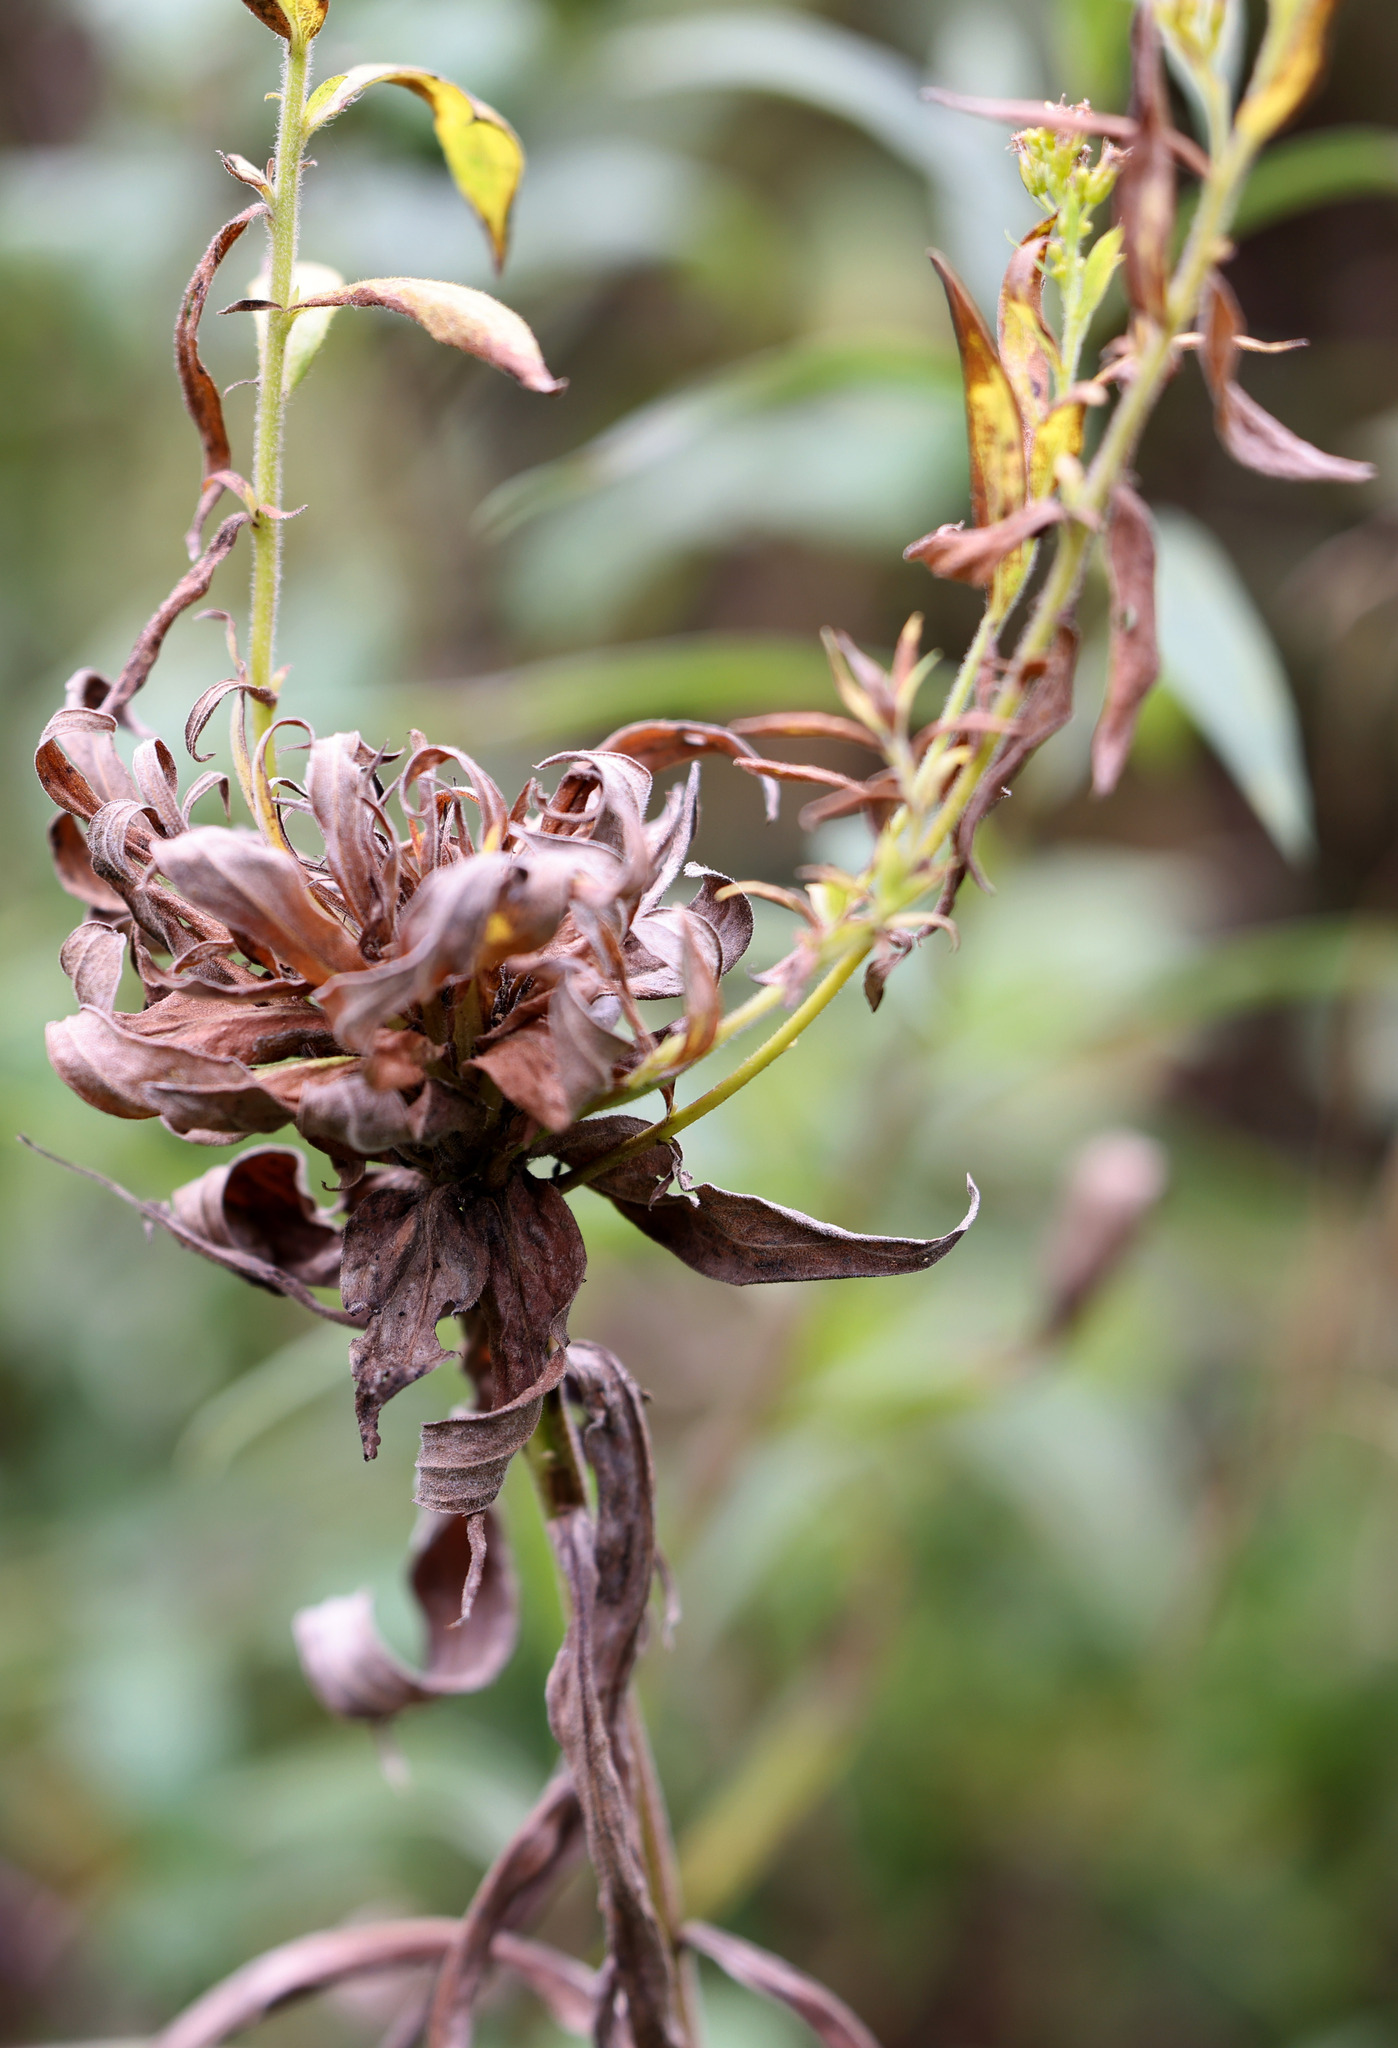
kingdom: Animalia
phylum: Arthropoda
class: Insecta
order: Diptera
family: Cecidomyiidae
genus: Rhopalomyia
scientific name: Rhopalomyia solidaginis
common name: Goldenrod bunch gall midge
